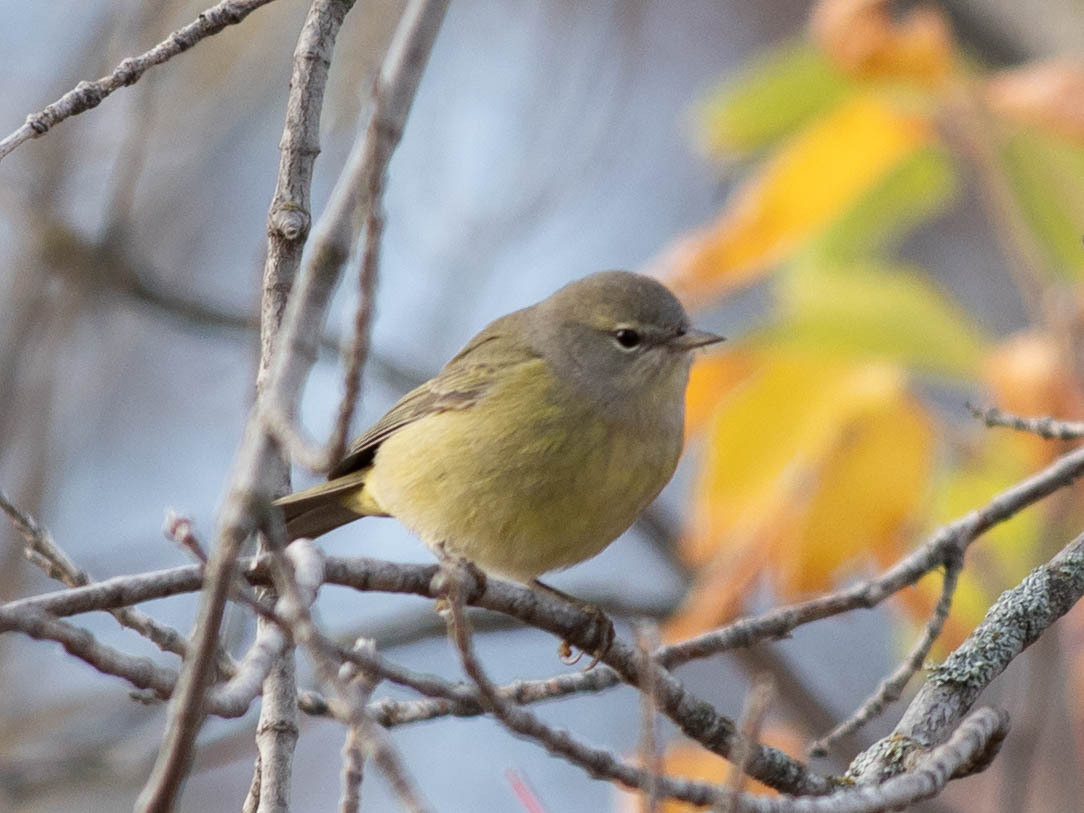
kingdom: Animalia
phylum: Chordata
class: Aves
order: Passeriformes
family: Parulidae
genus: Leiothlypis
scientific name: Leiothlypis celata
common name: Orange-crowned warbler
